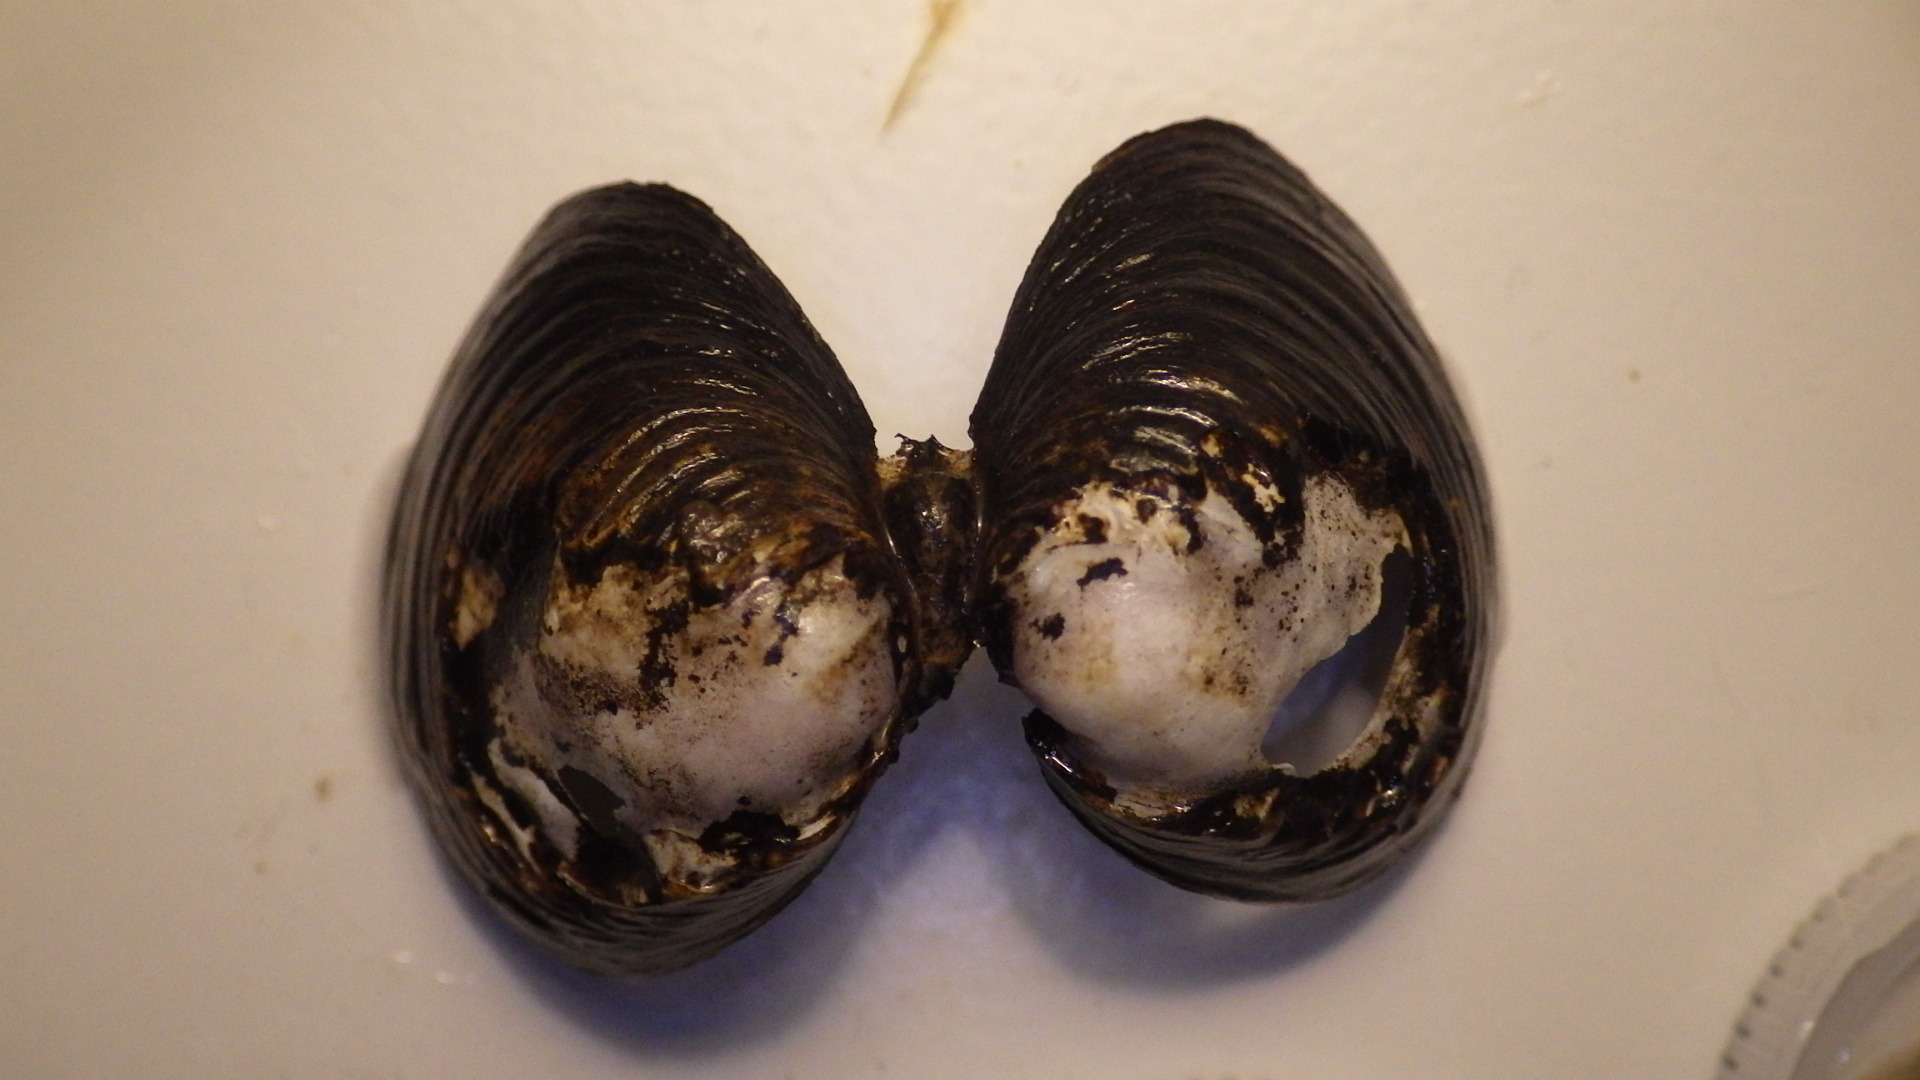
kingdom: Animalia
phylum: Mollusca
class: Bivalvia
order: Venerida
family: Cyrenidae
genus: Corbicula
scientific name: Corbicula fluminea
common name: Asian clam
